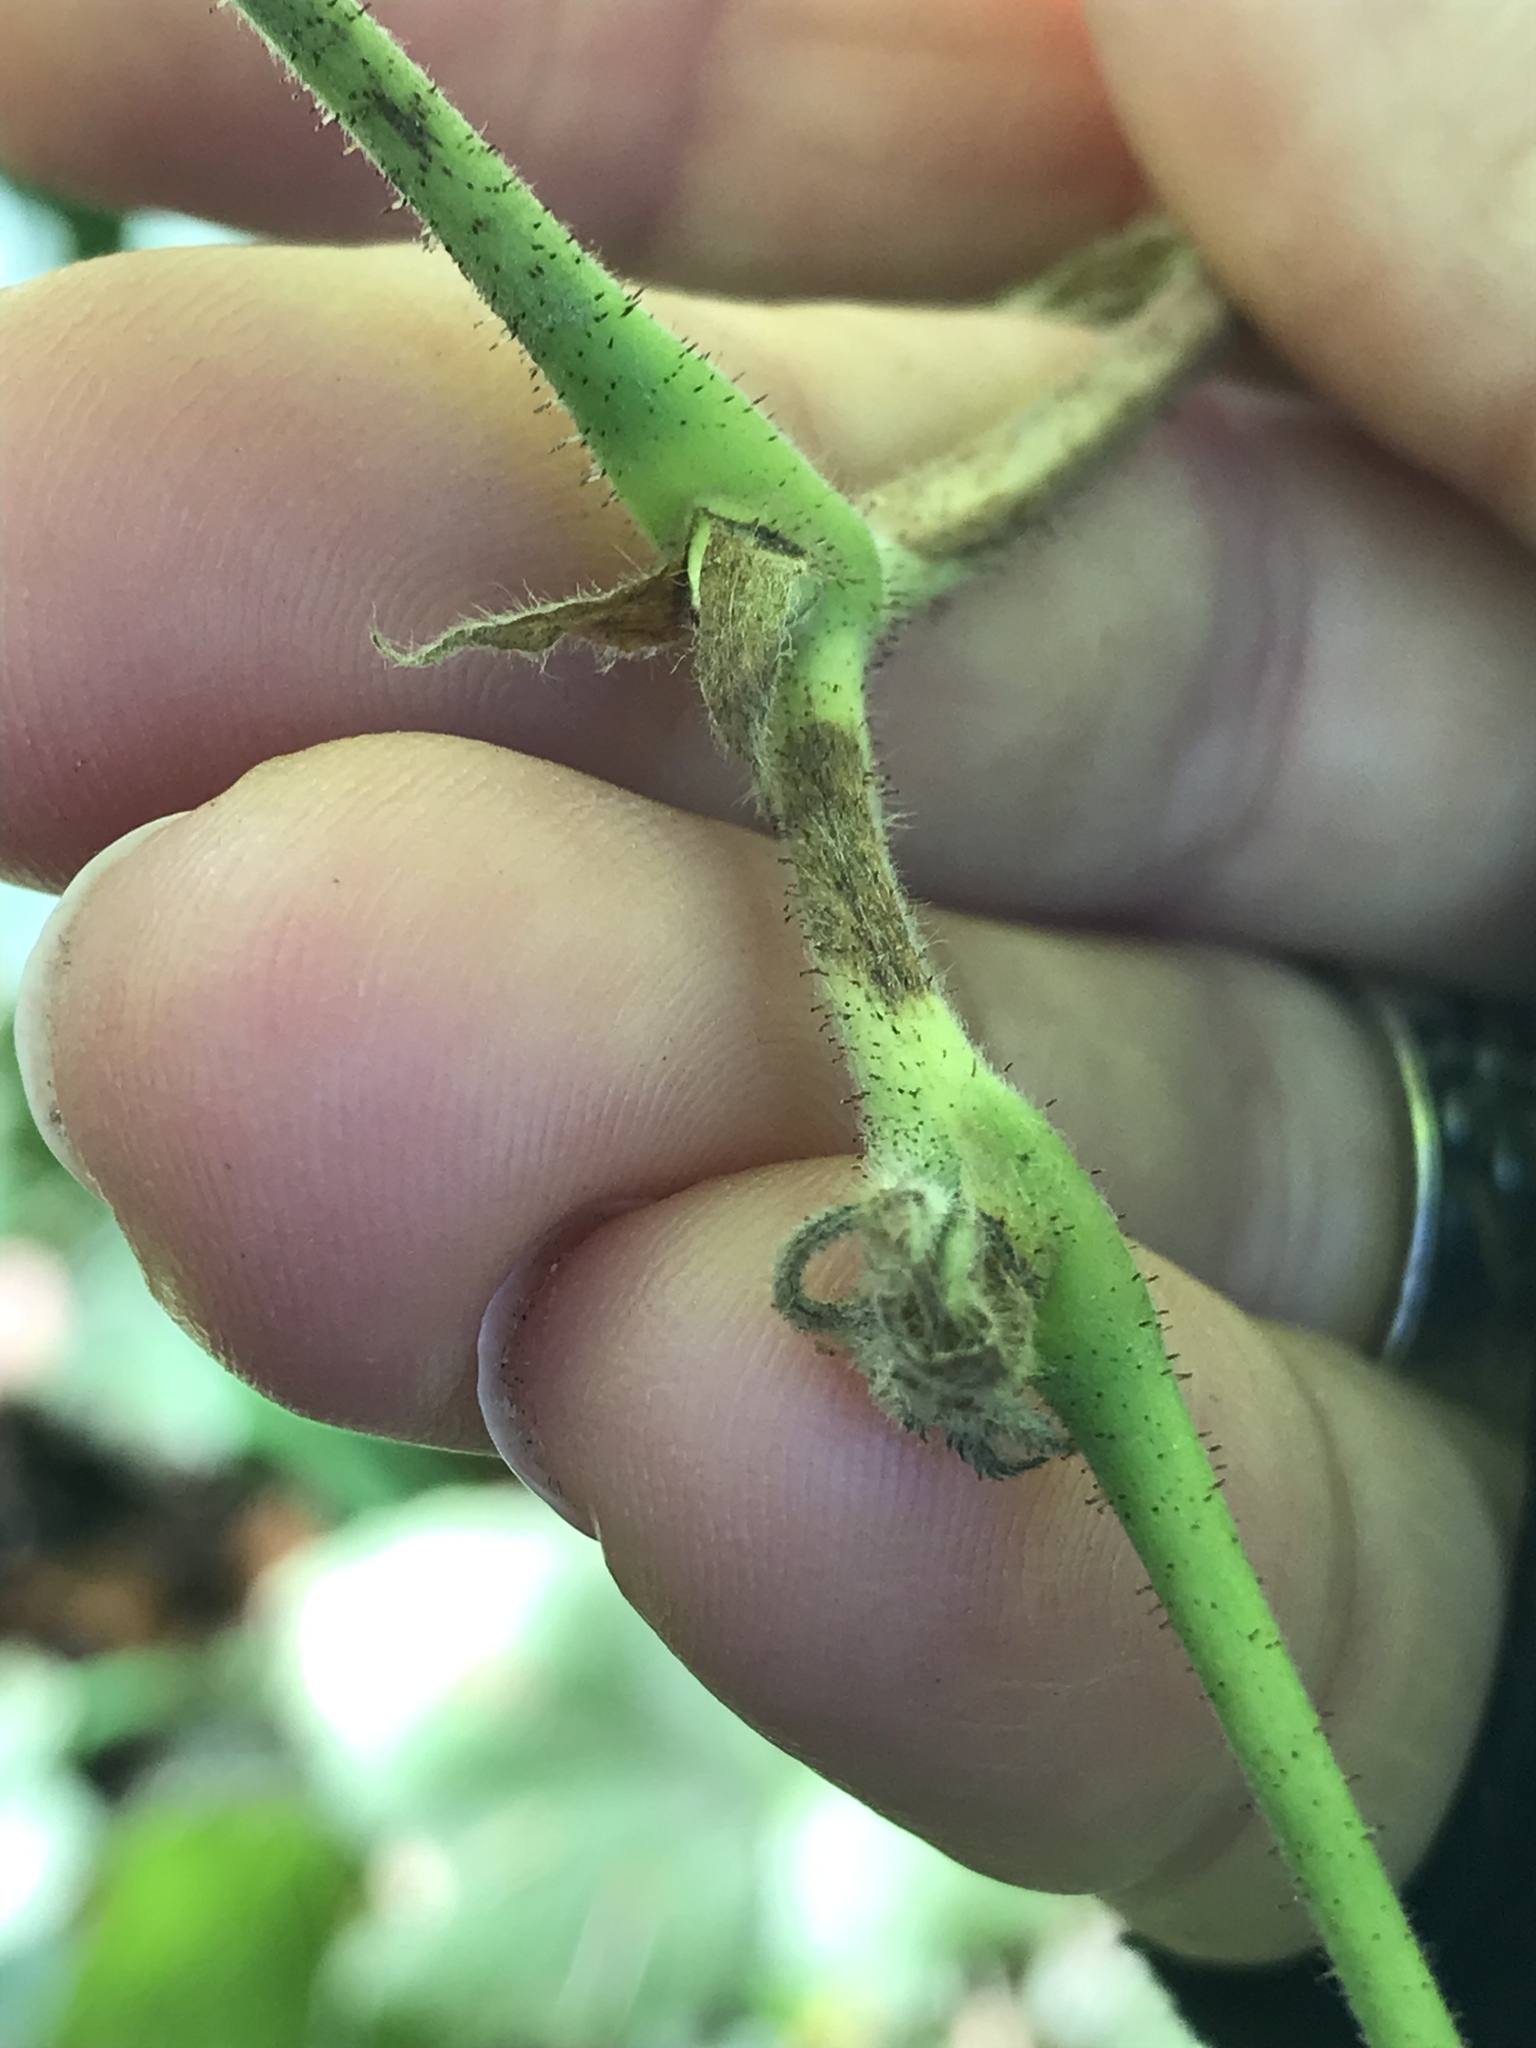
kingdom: Plantae
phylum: Tracheophyta
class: Magnoliopsida
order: Rosales
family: Rosaceae
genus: Rubus
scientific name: Rubus parviflorus
